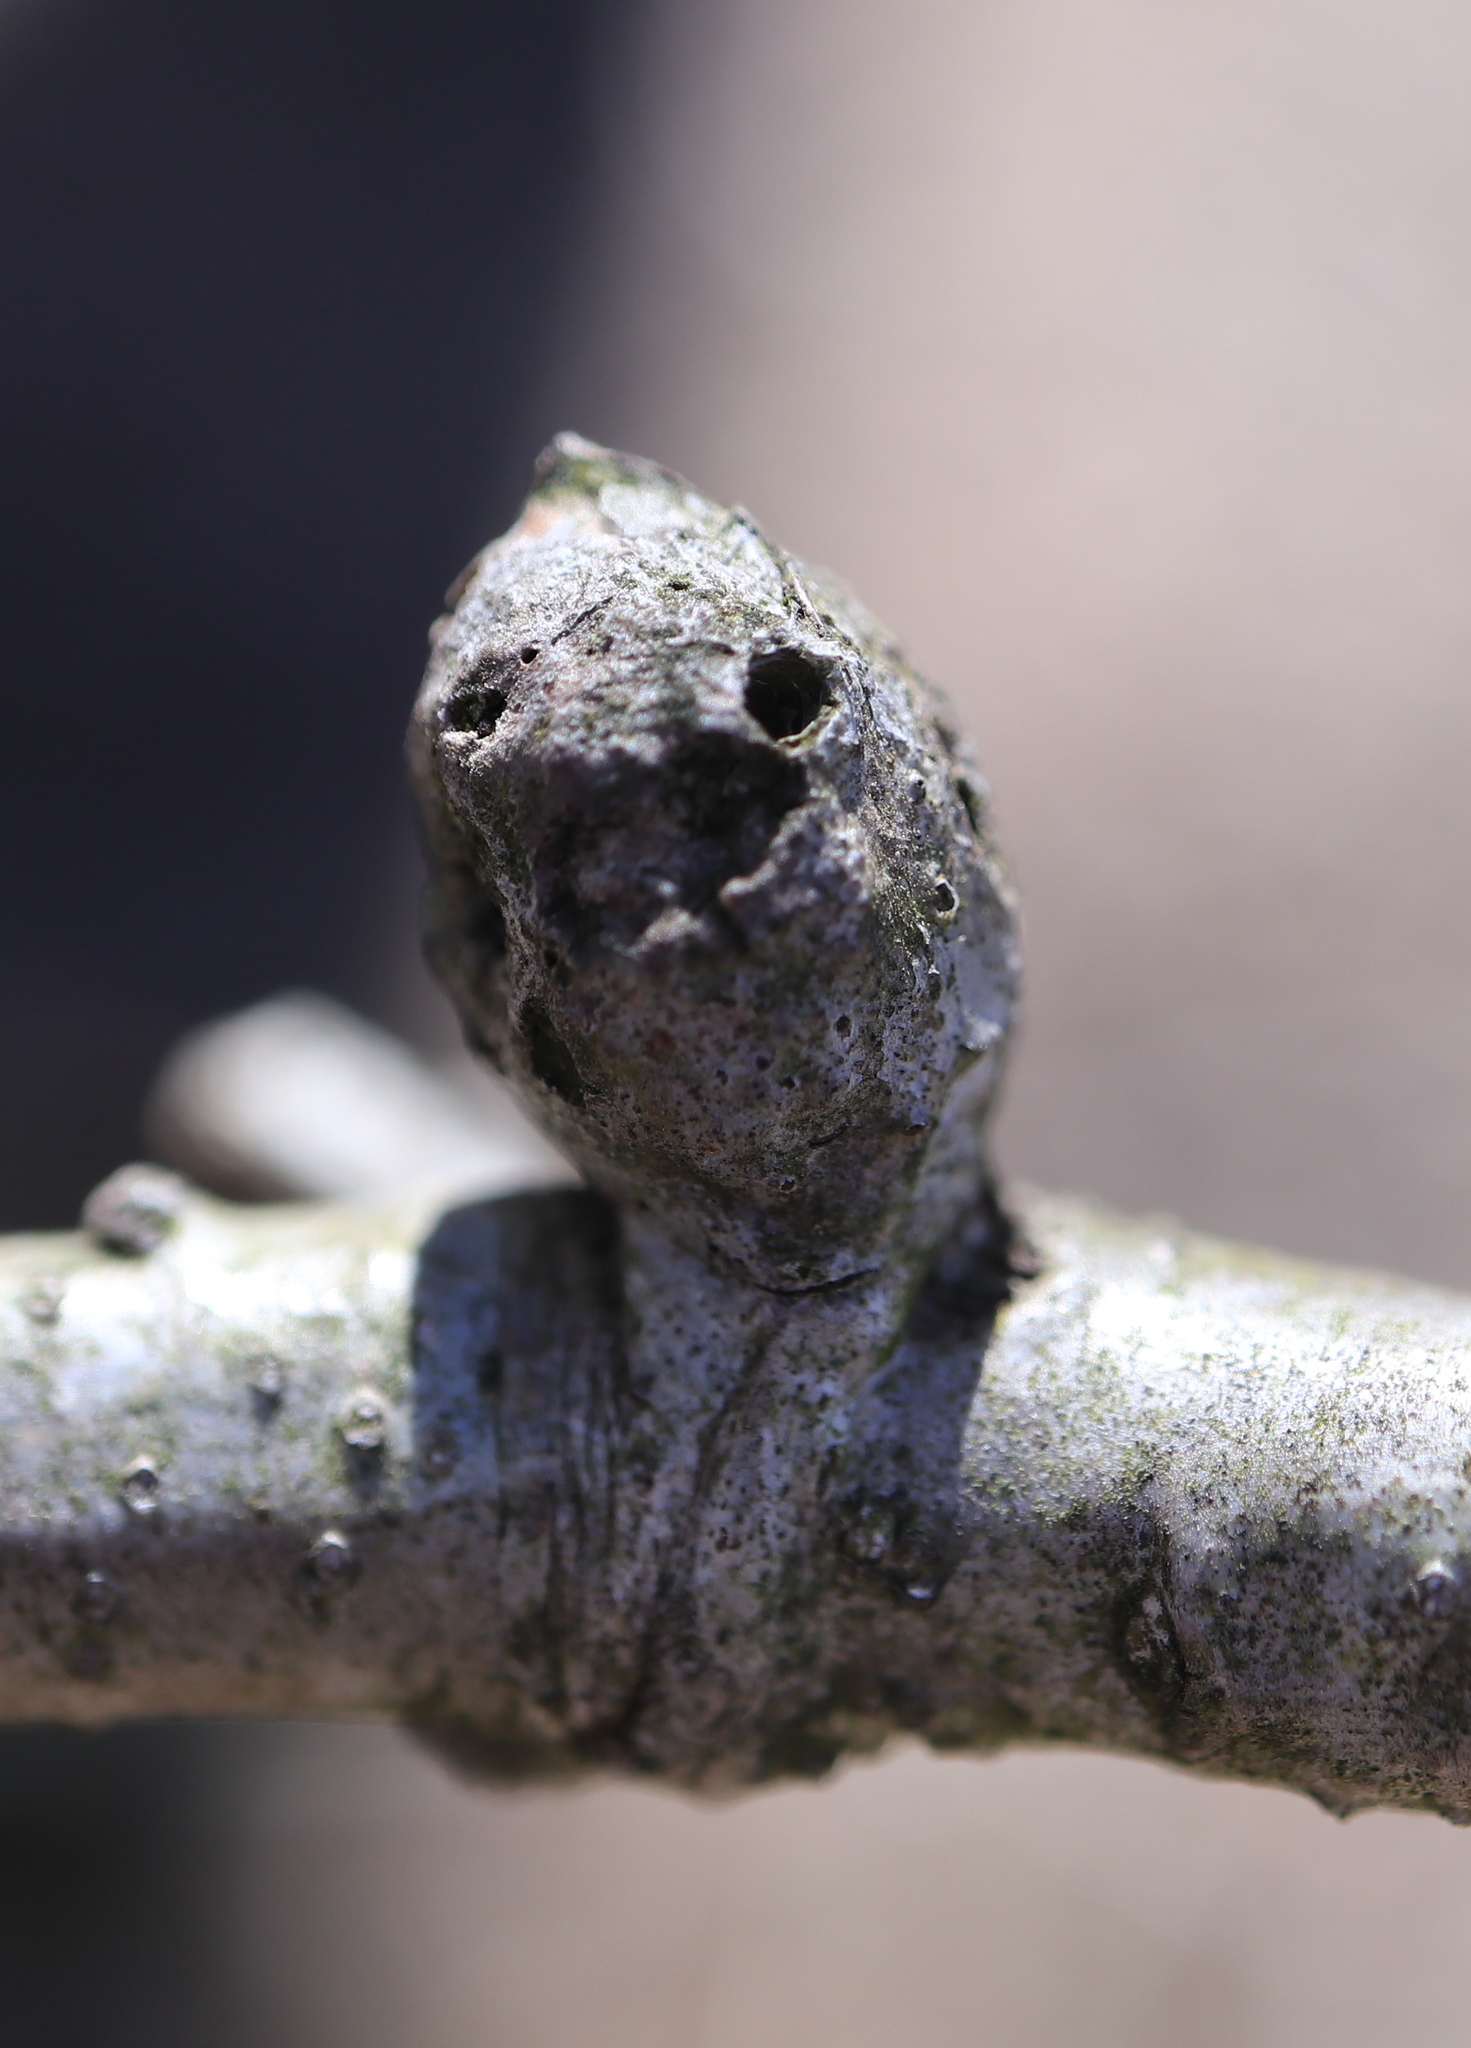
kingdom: Animalia
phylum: Arthropoda
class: Insecta
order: Hymenoptera
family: Cynipidae
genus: Neuroterus
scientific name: Neuroterus quercusbaccarum
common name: Common spangle gall
